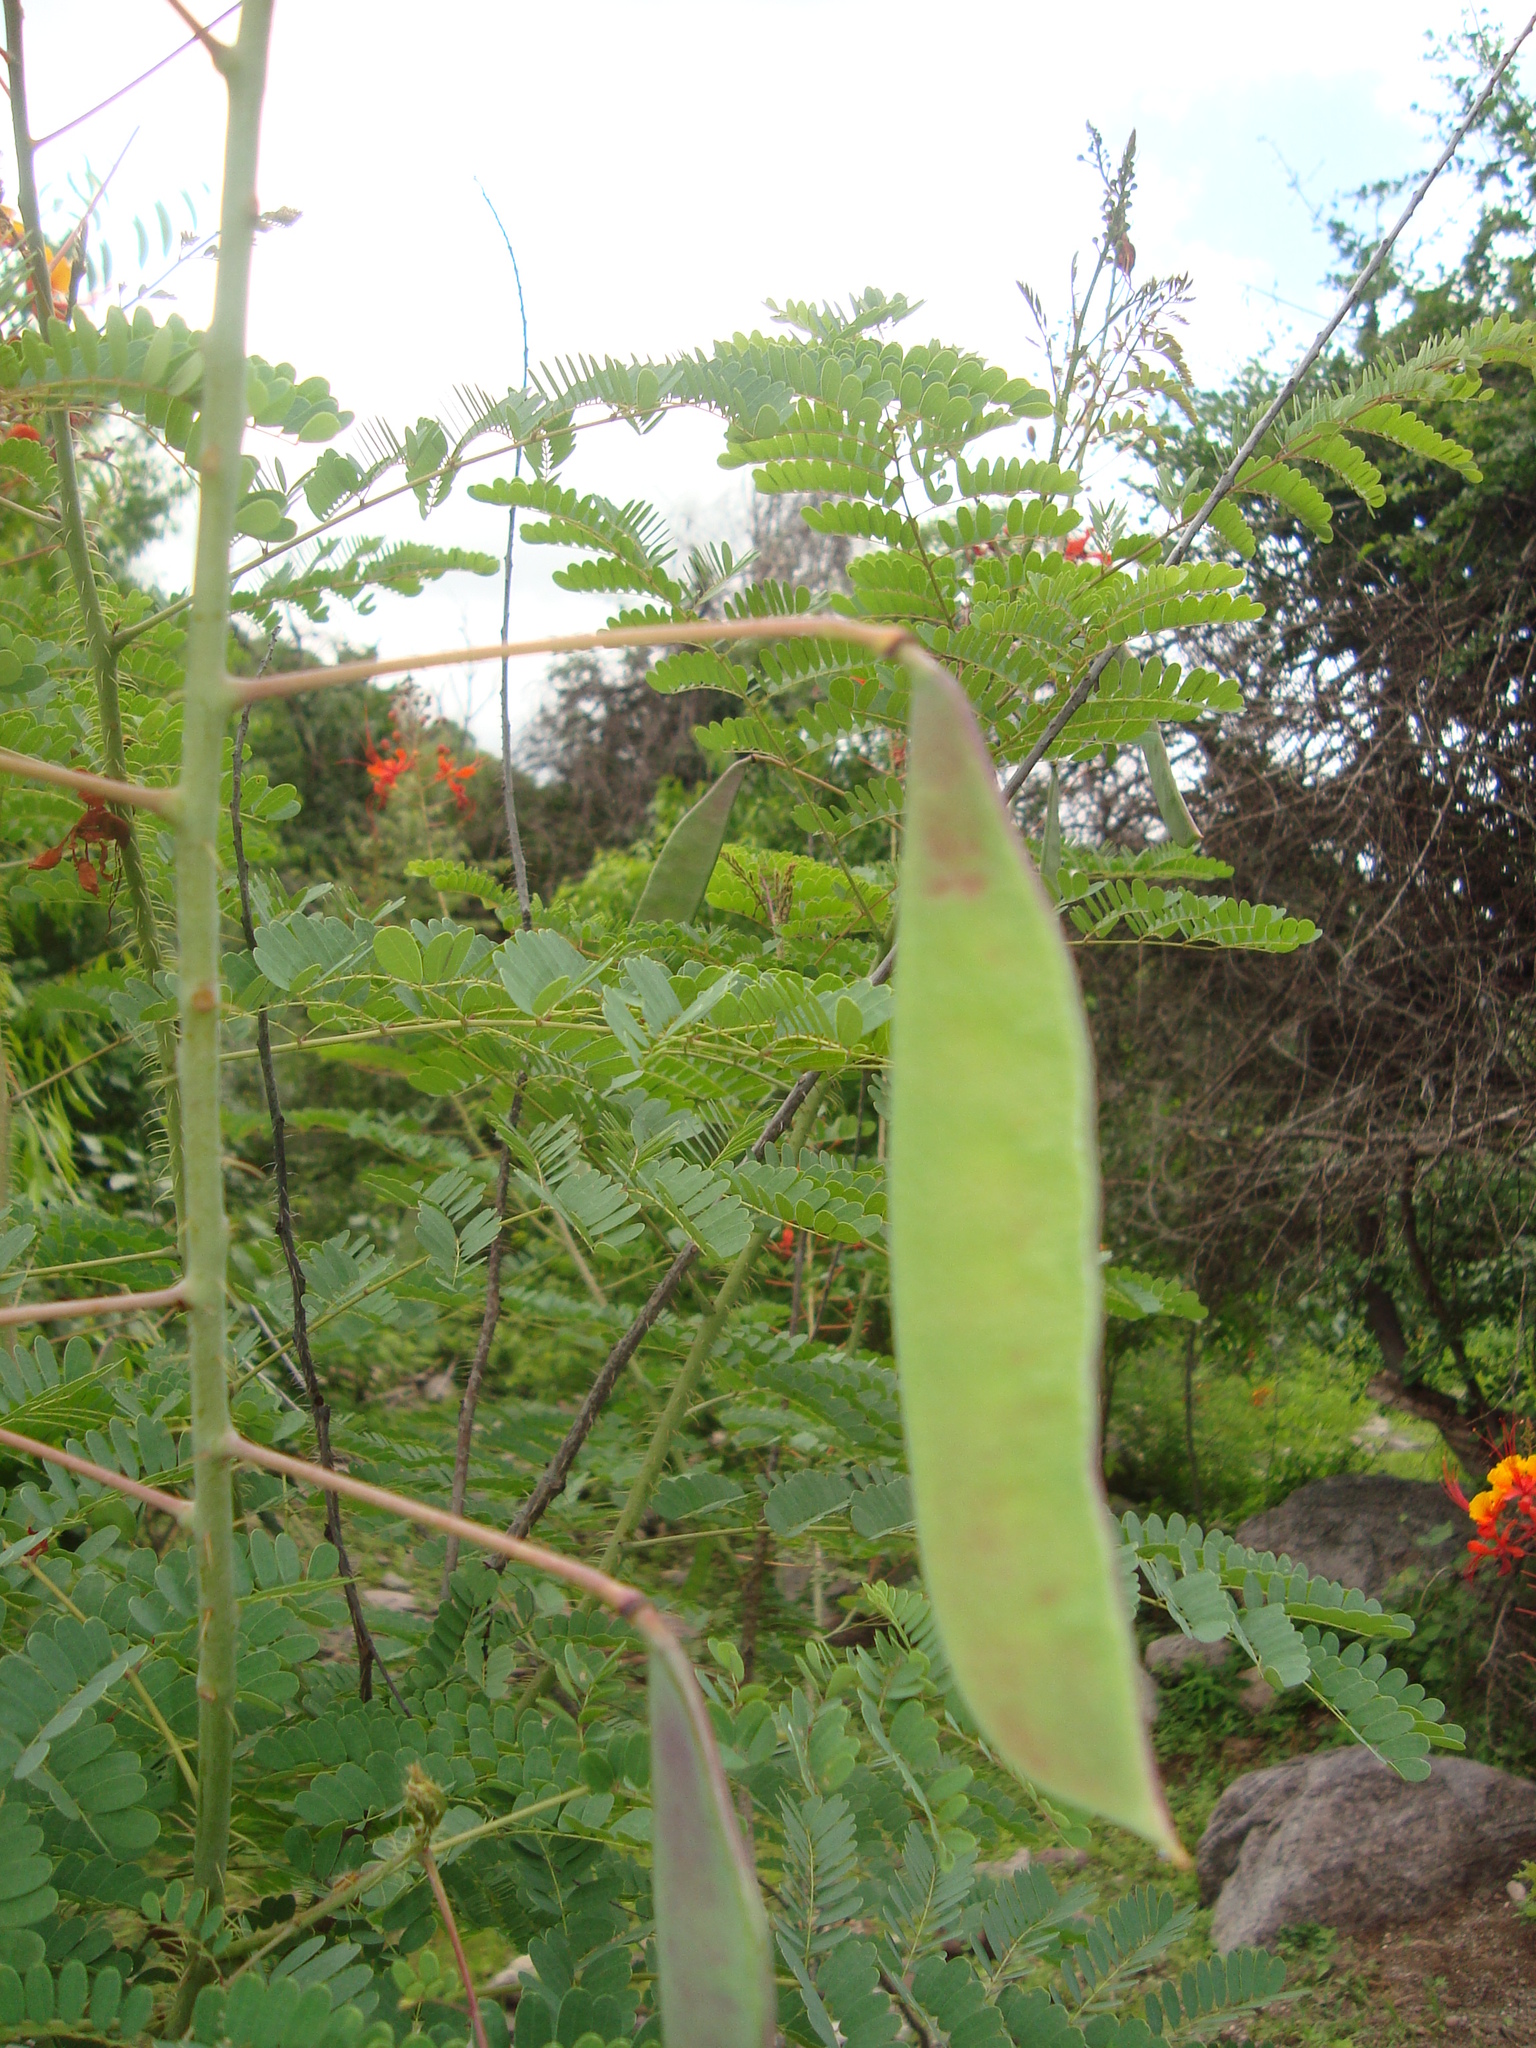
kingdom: Plantae
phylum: Tracheophyta
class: Magnoliopsida
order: Fabales
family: Fabaceae
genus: Caesalpinia
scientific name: Caesalpinia pulcherrima
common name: Pride-of-barbados
